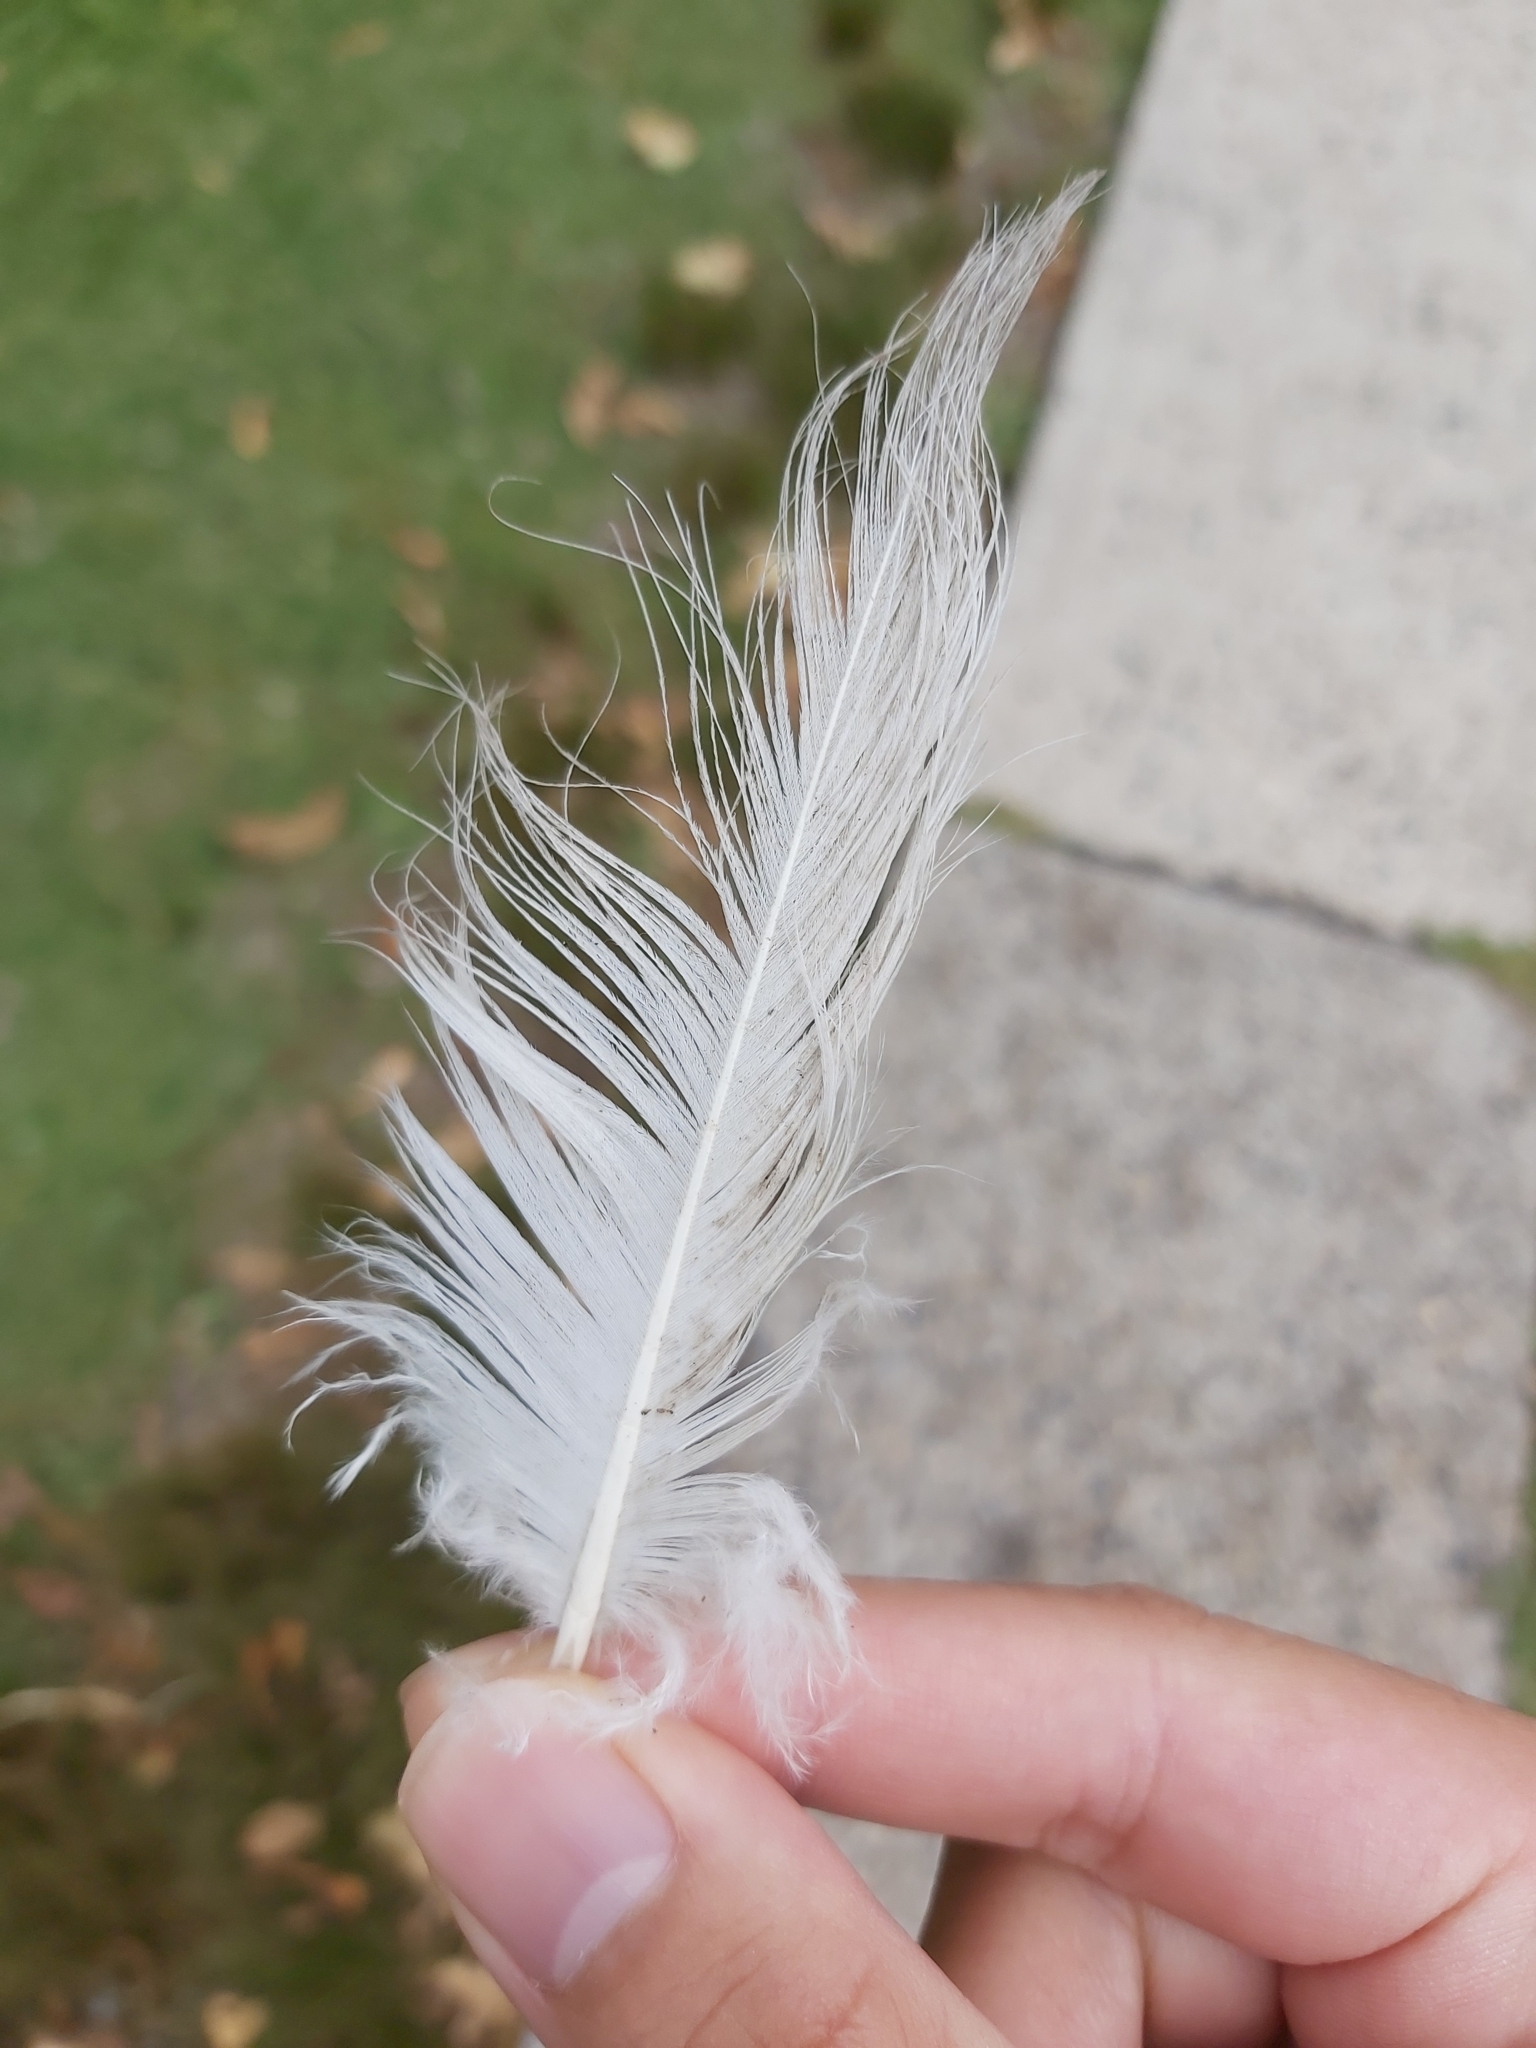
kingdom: Animalia
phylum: Chordata
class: Aves
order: Psittaciformes
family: Psittacidae
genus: Cacatua
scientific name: Cacatua galerita
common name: Sulphur-crested cockatoo
